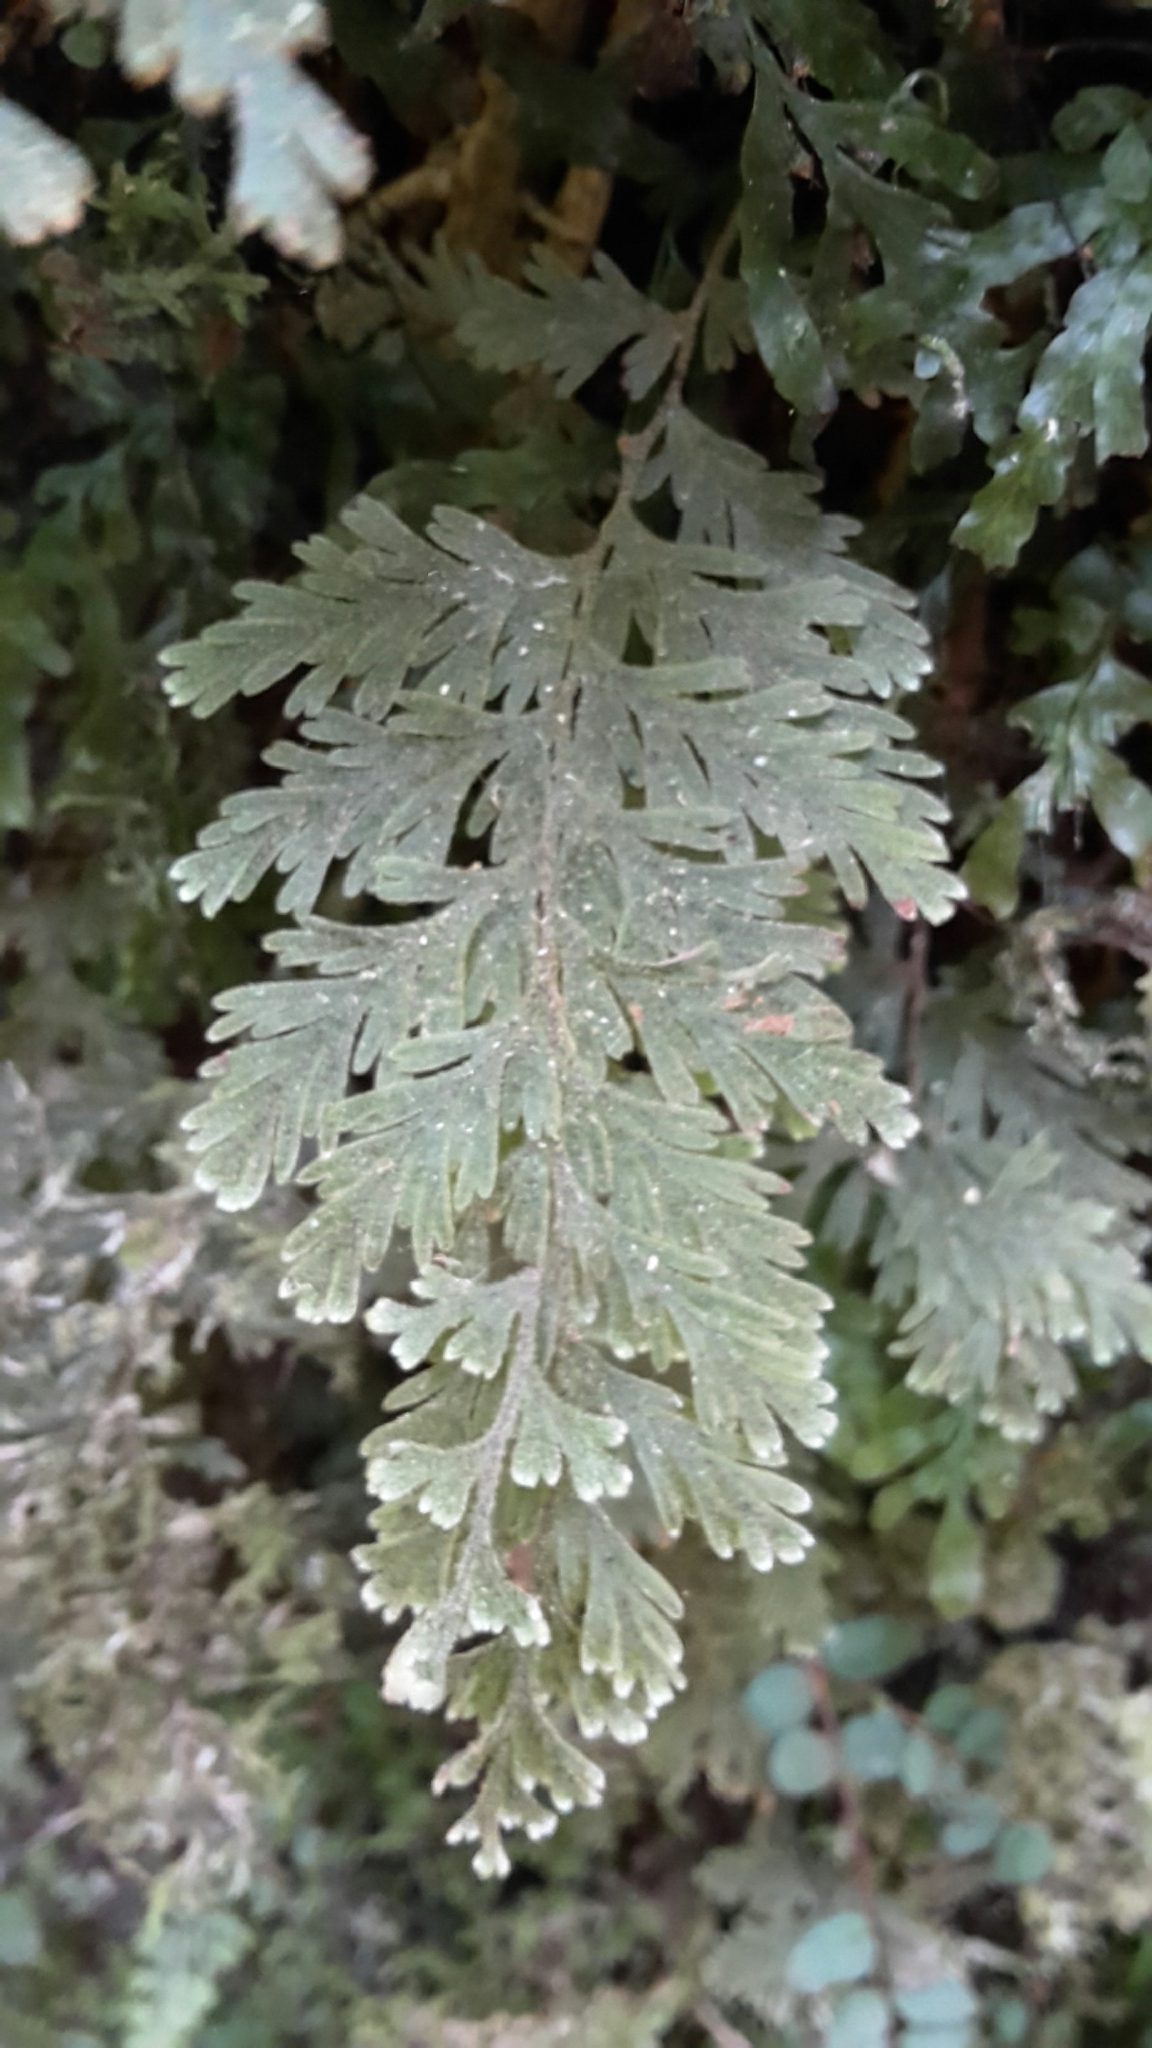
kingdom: Plantae
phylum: Tracheophyta
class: Polypodiopsida
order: Hymenophyllales
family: Hymenophyllaceae
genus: Hymenophyllum
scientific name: Hymenophyllum frankliniae
